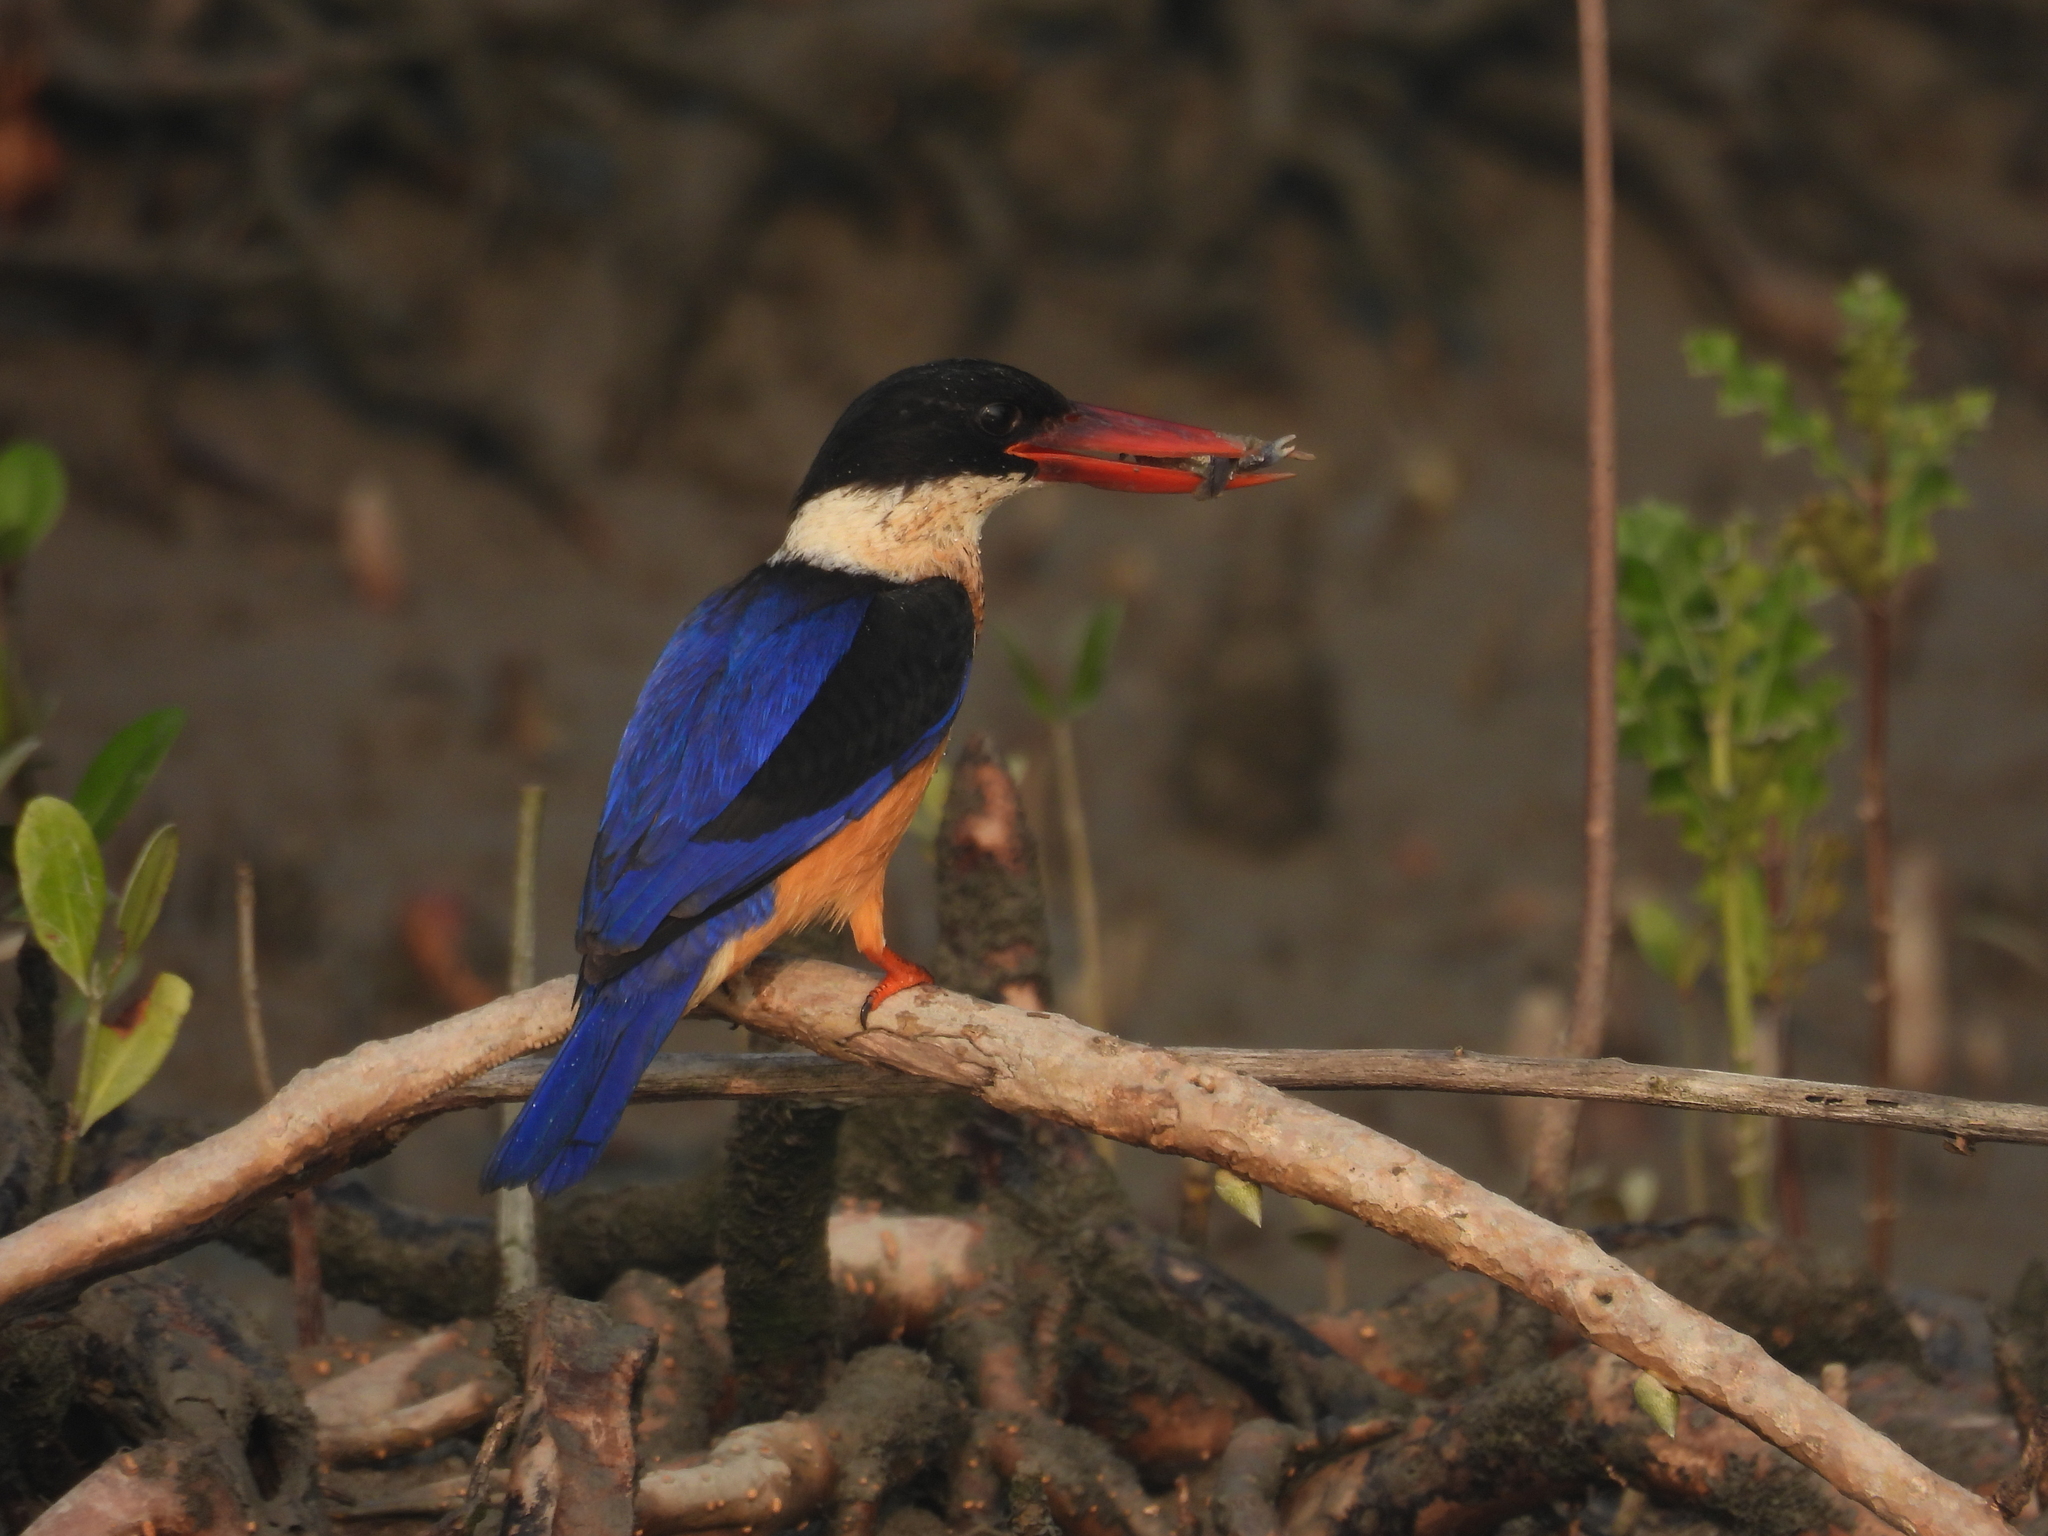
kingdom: Animalia
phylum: Chordata
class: Aves
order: Coraciiformes
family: Alcedinidae
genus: Halcyon
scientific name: Halcyon pileata
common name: Black-capped kingfisher
